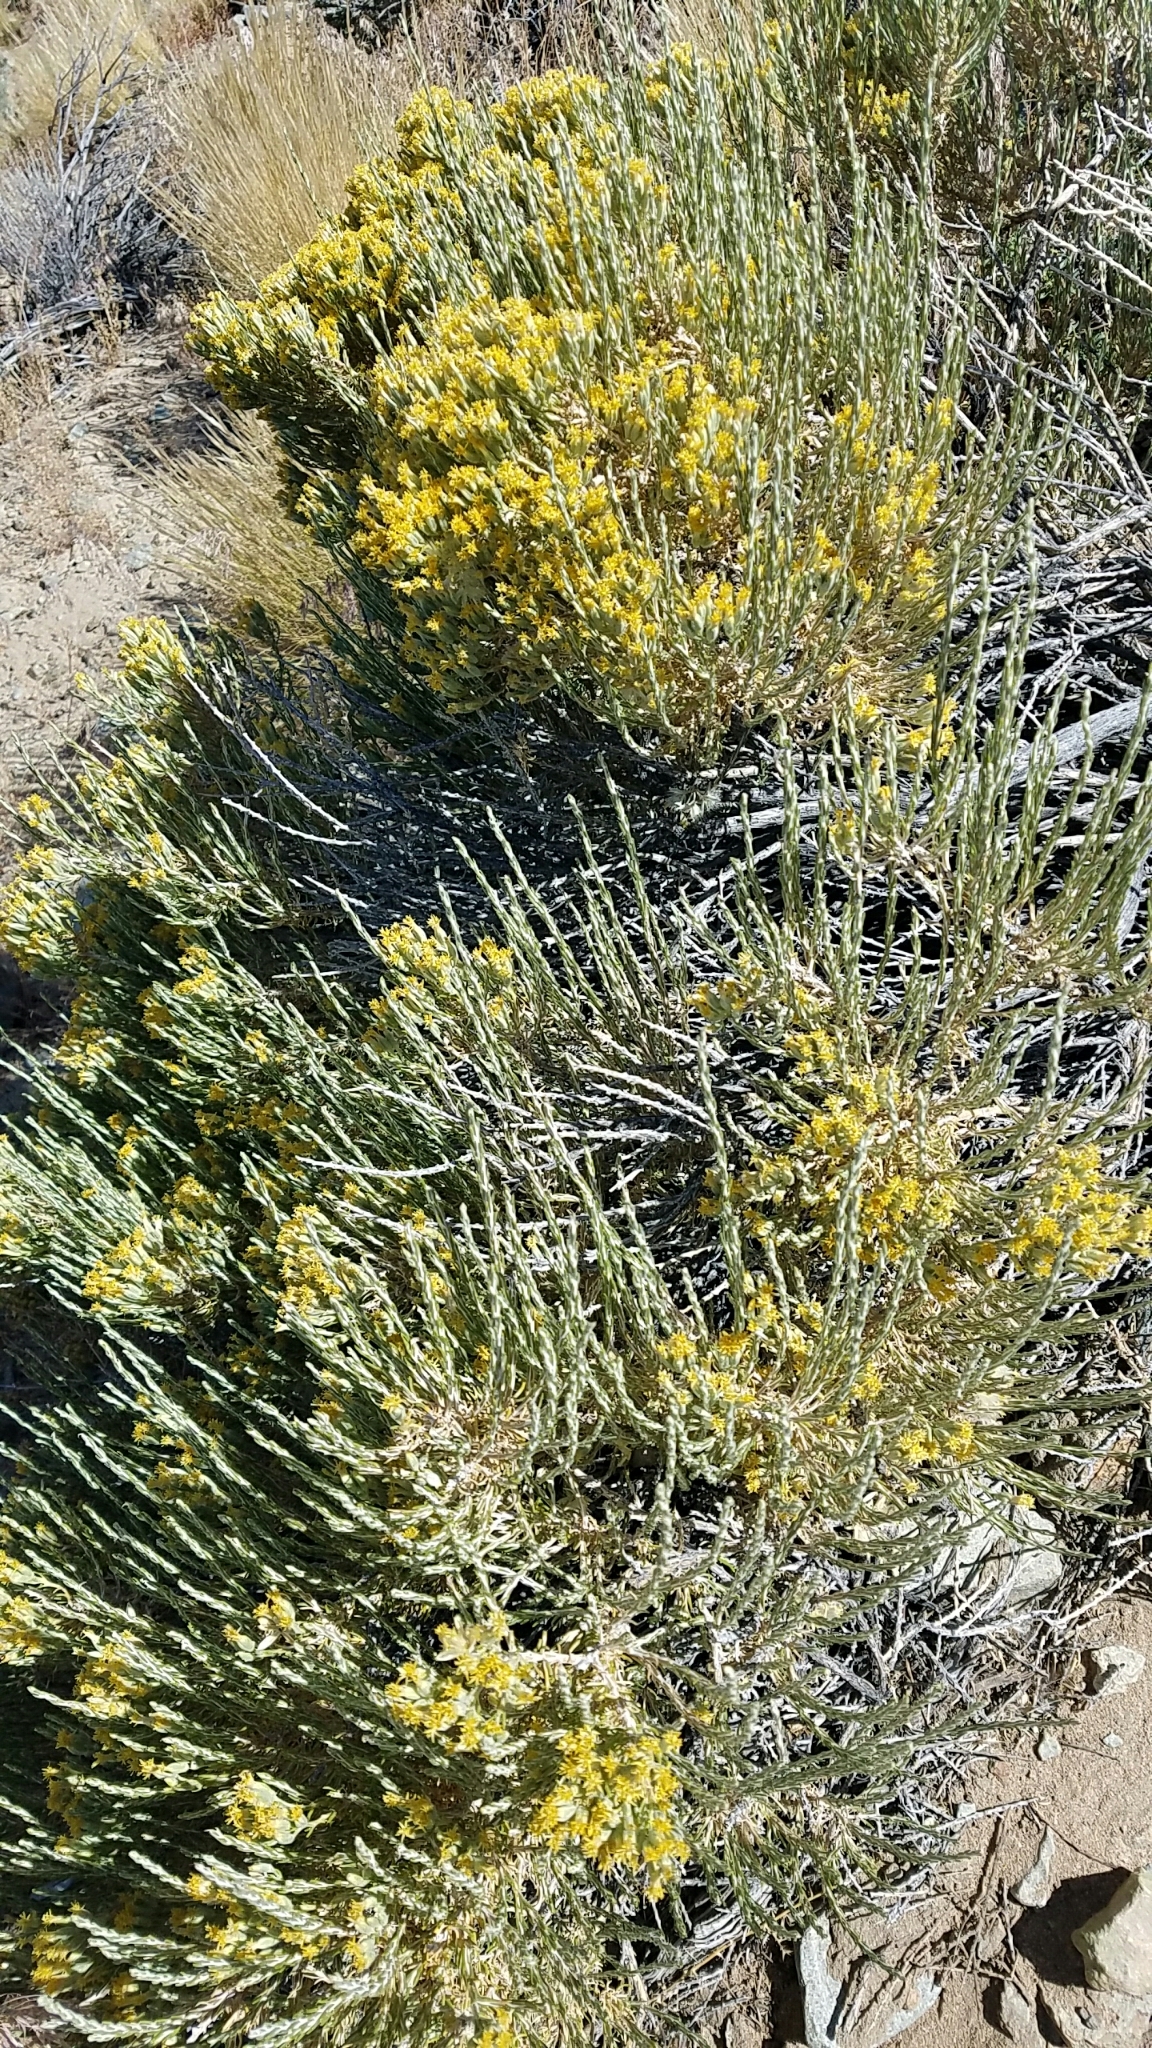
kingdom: Plantae
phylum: Tracheophyta
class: Magnoliopsida
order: Asterales
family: Asteraceae
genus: Tetradymia
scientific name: Tetradymia glabrata
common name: Smooth tetradymia
